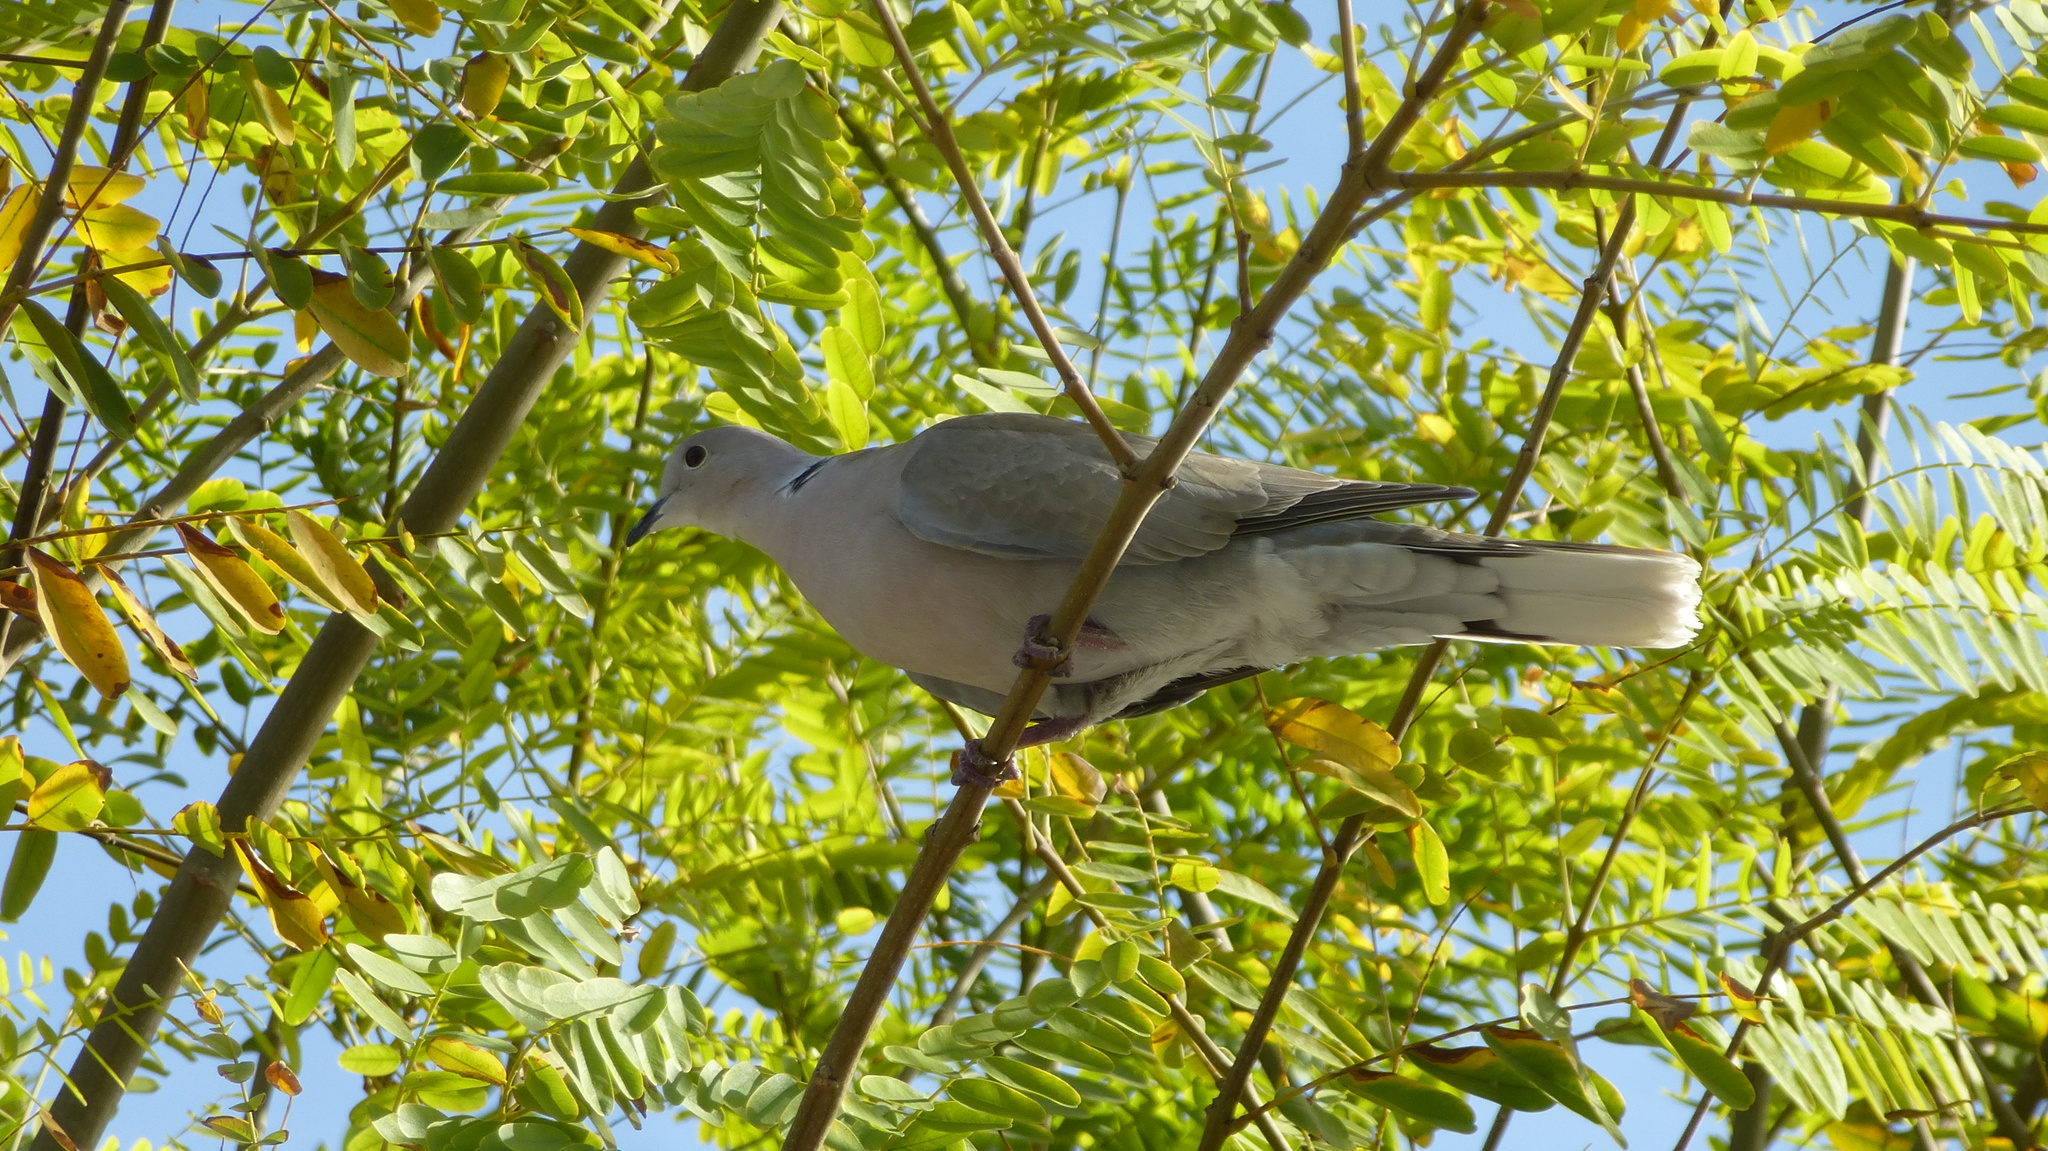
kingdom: Animalia
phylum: Chordata
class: Aves
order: Columbiformes
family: Columbidae
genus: Streptopelia
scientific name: Streptopelia decaocto
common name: Eurasian collared dove
